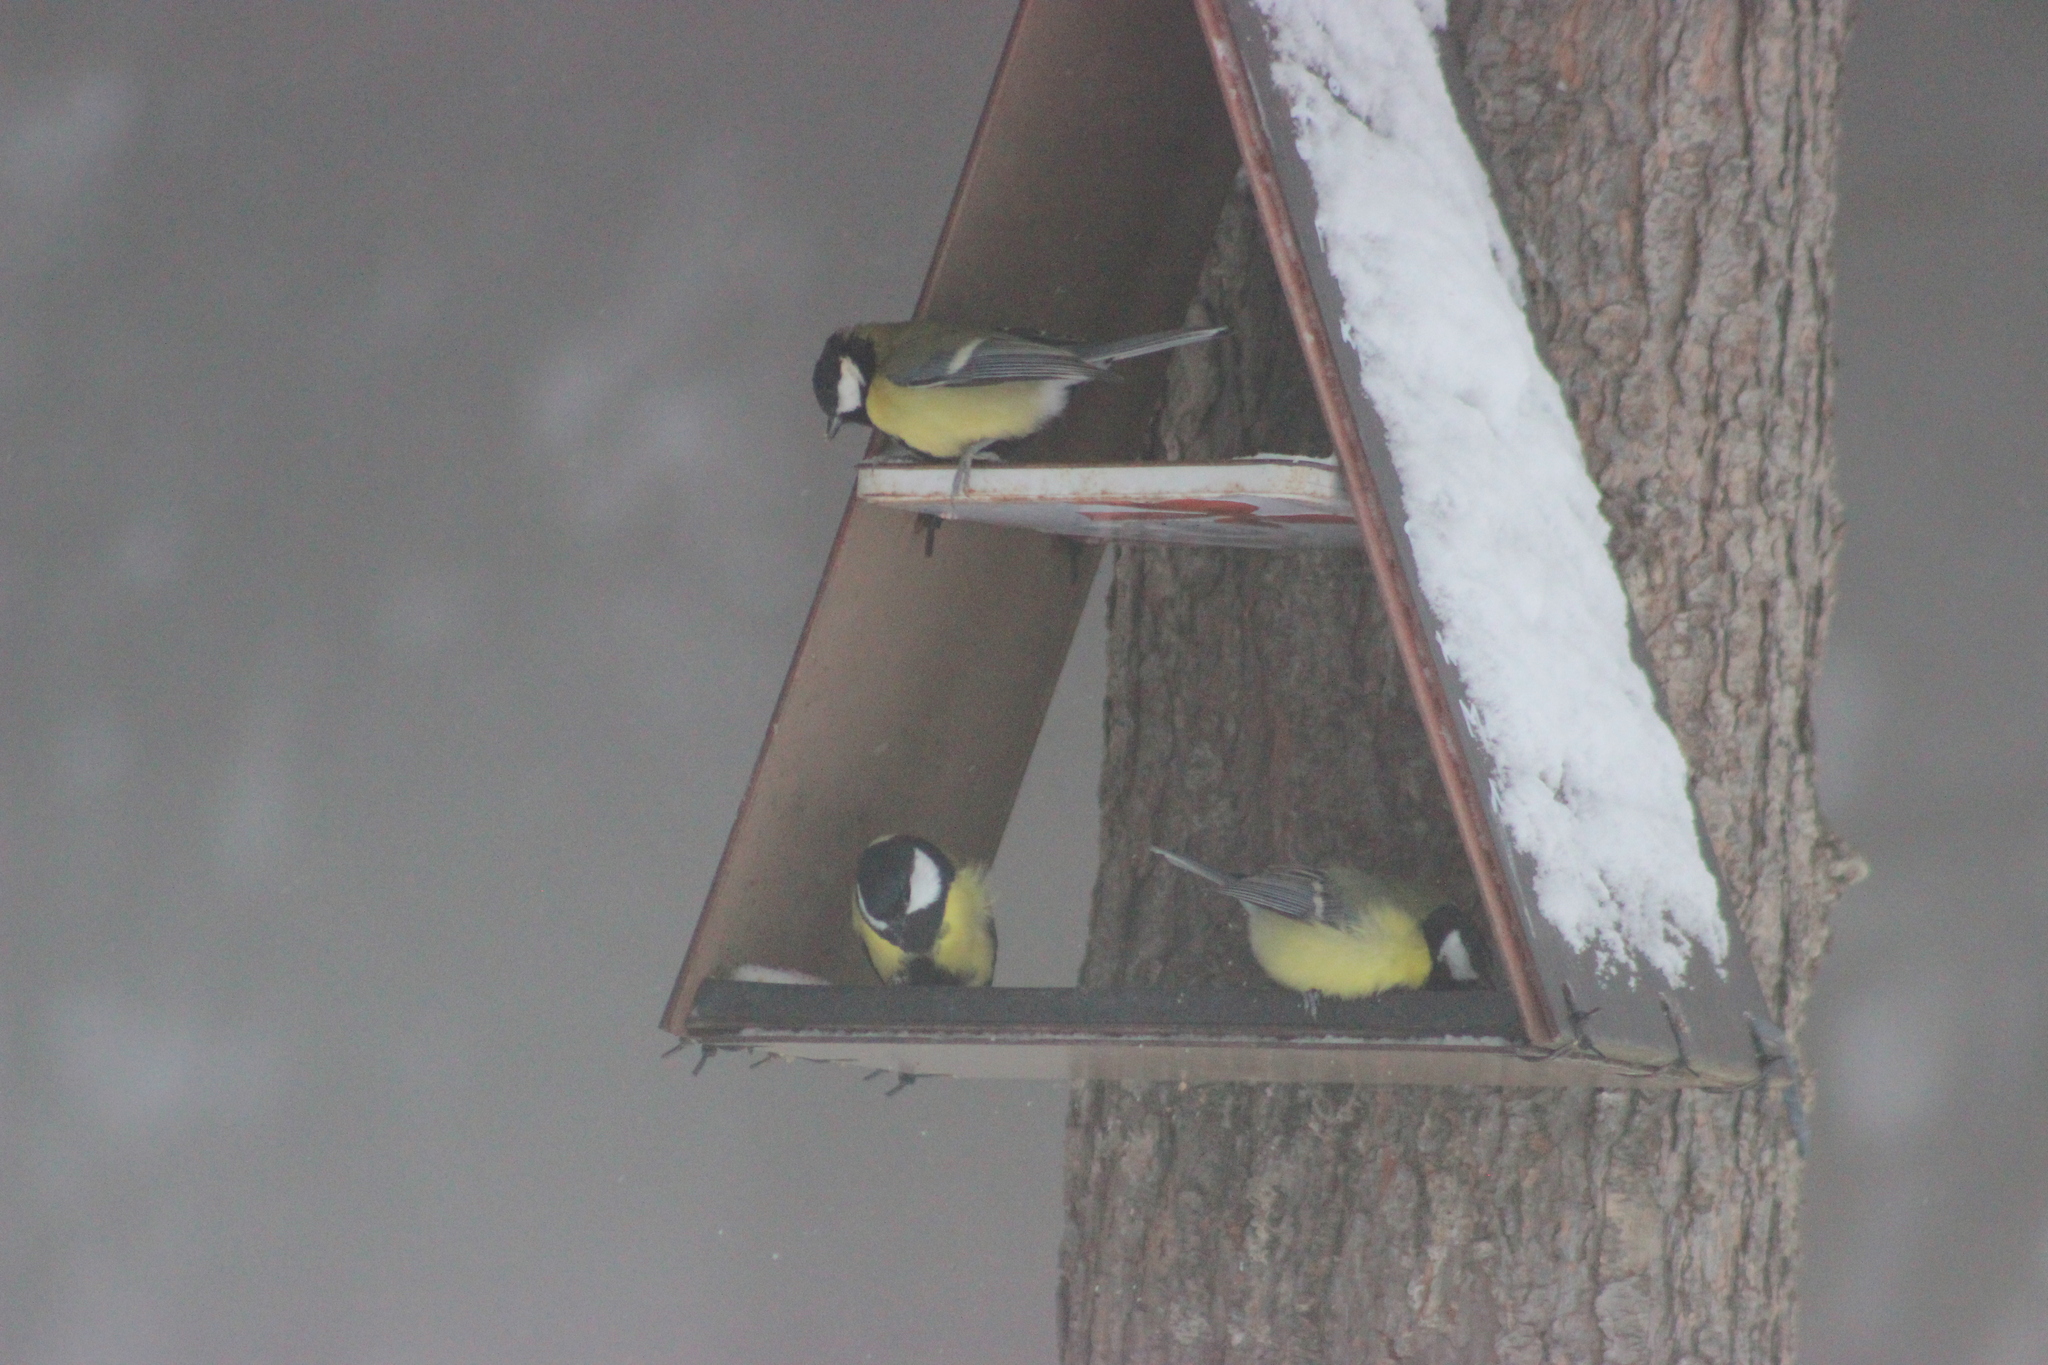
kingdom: Animalia
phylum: Chordata
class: Aves
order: Passeriformes
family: Paridae
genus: Parus
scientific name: Parus major
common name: Great tit
